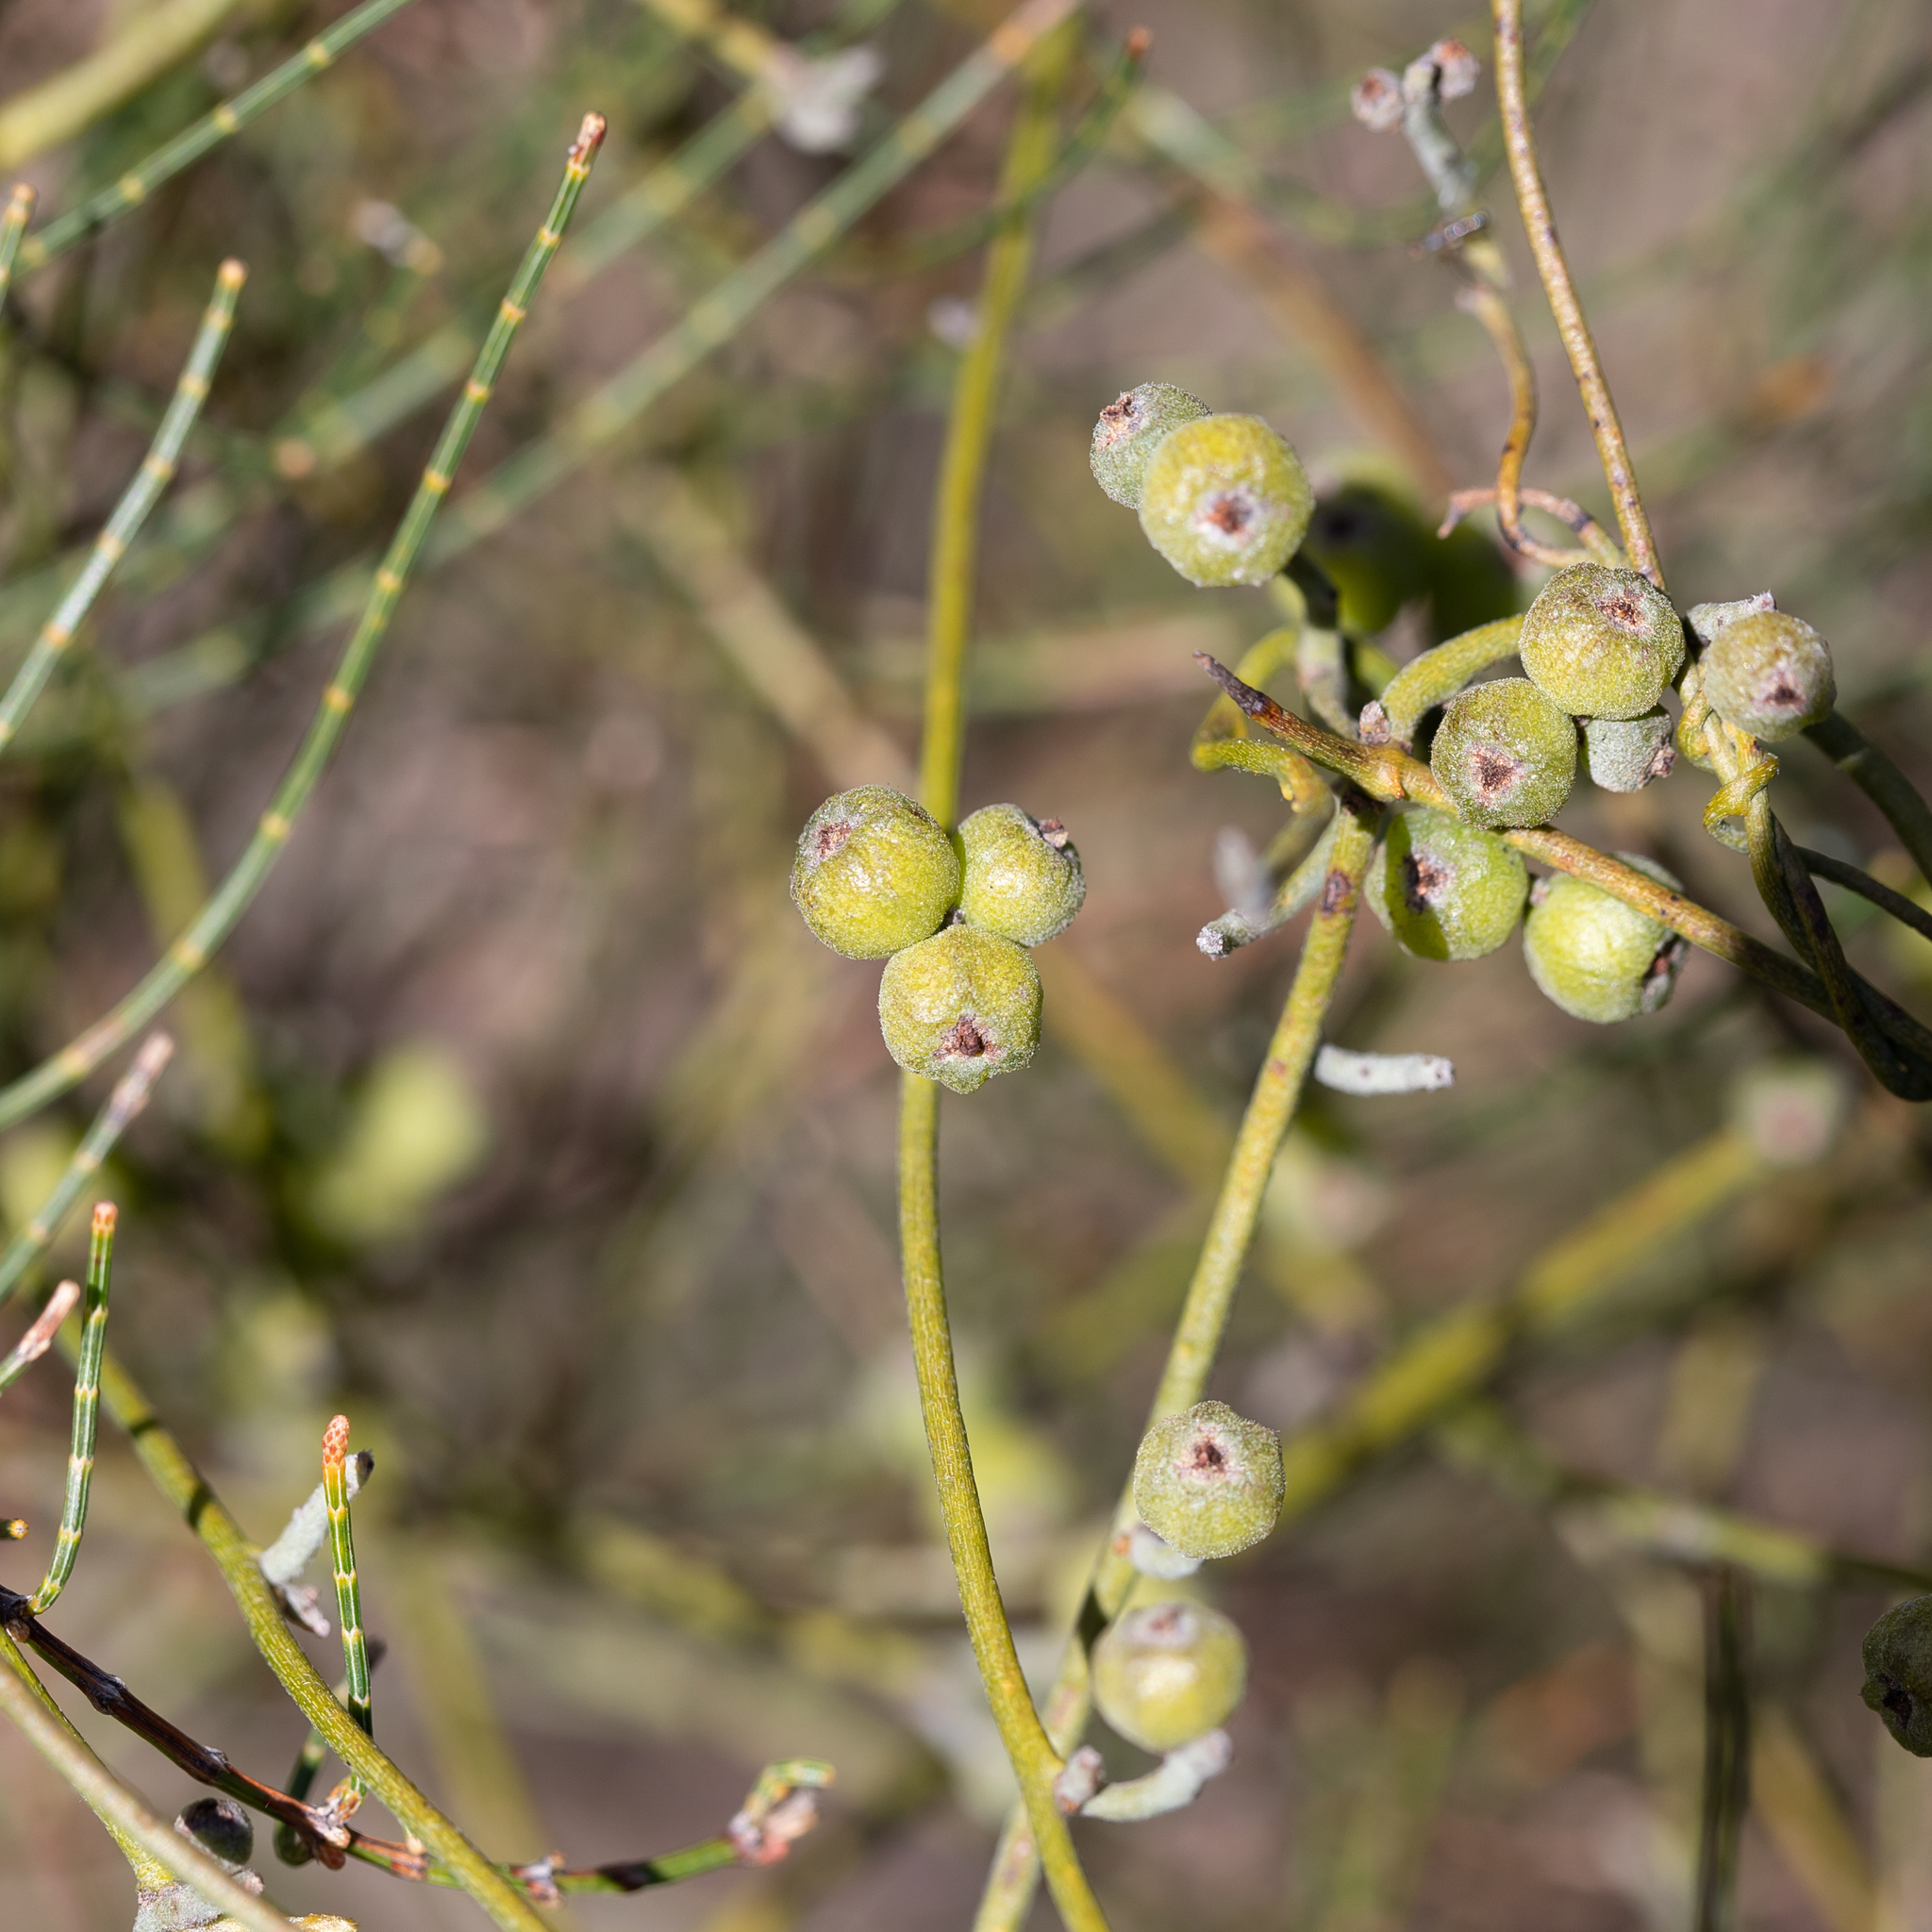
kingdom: Plantae
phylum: Tracheophyta
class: Magnoliopsida
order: Laurales
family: Lauraceae
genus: Cassytha
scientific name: Cassytha pubescens
